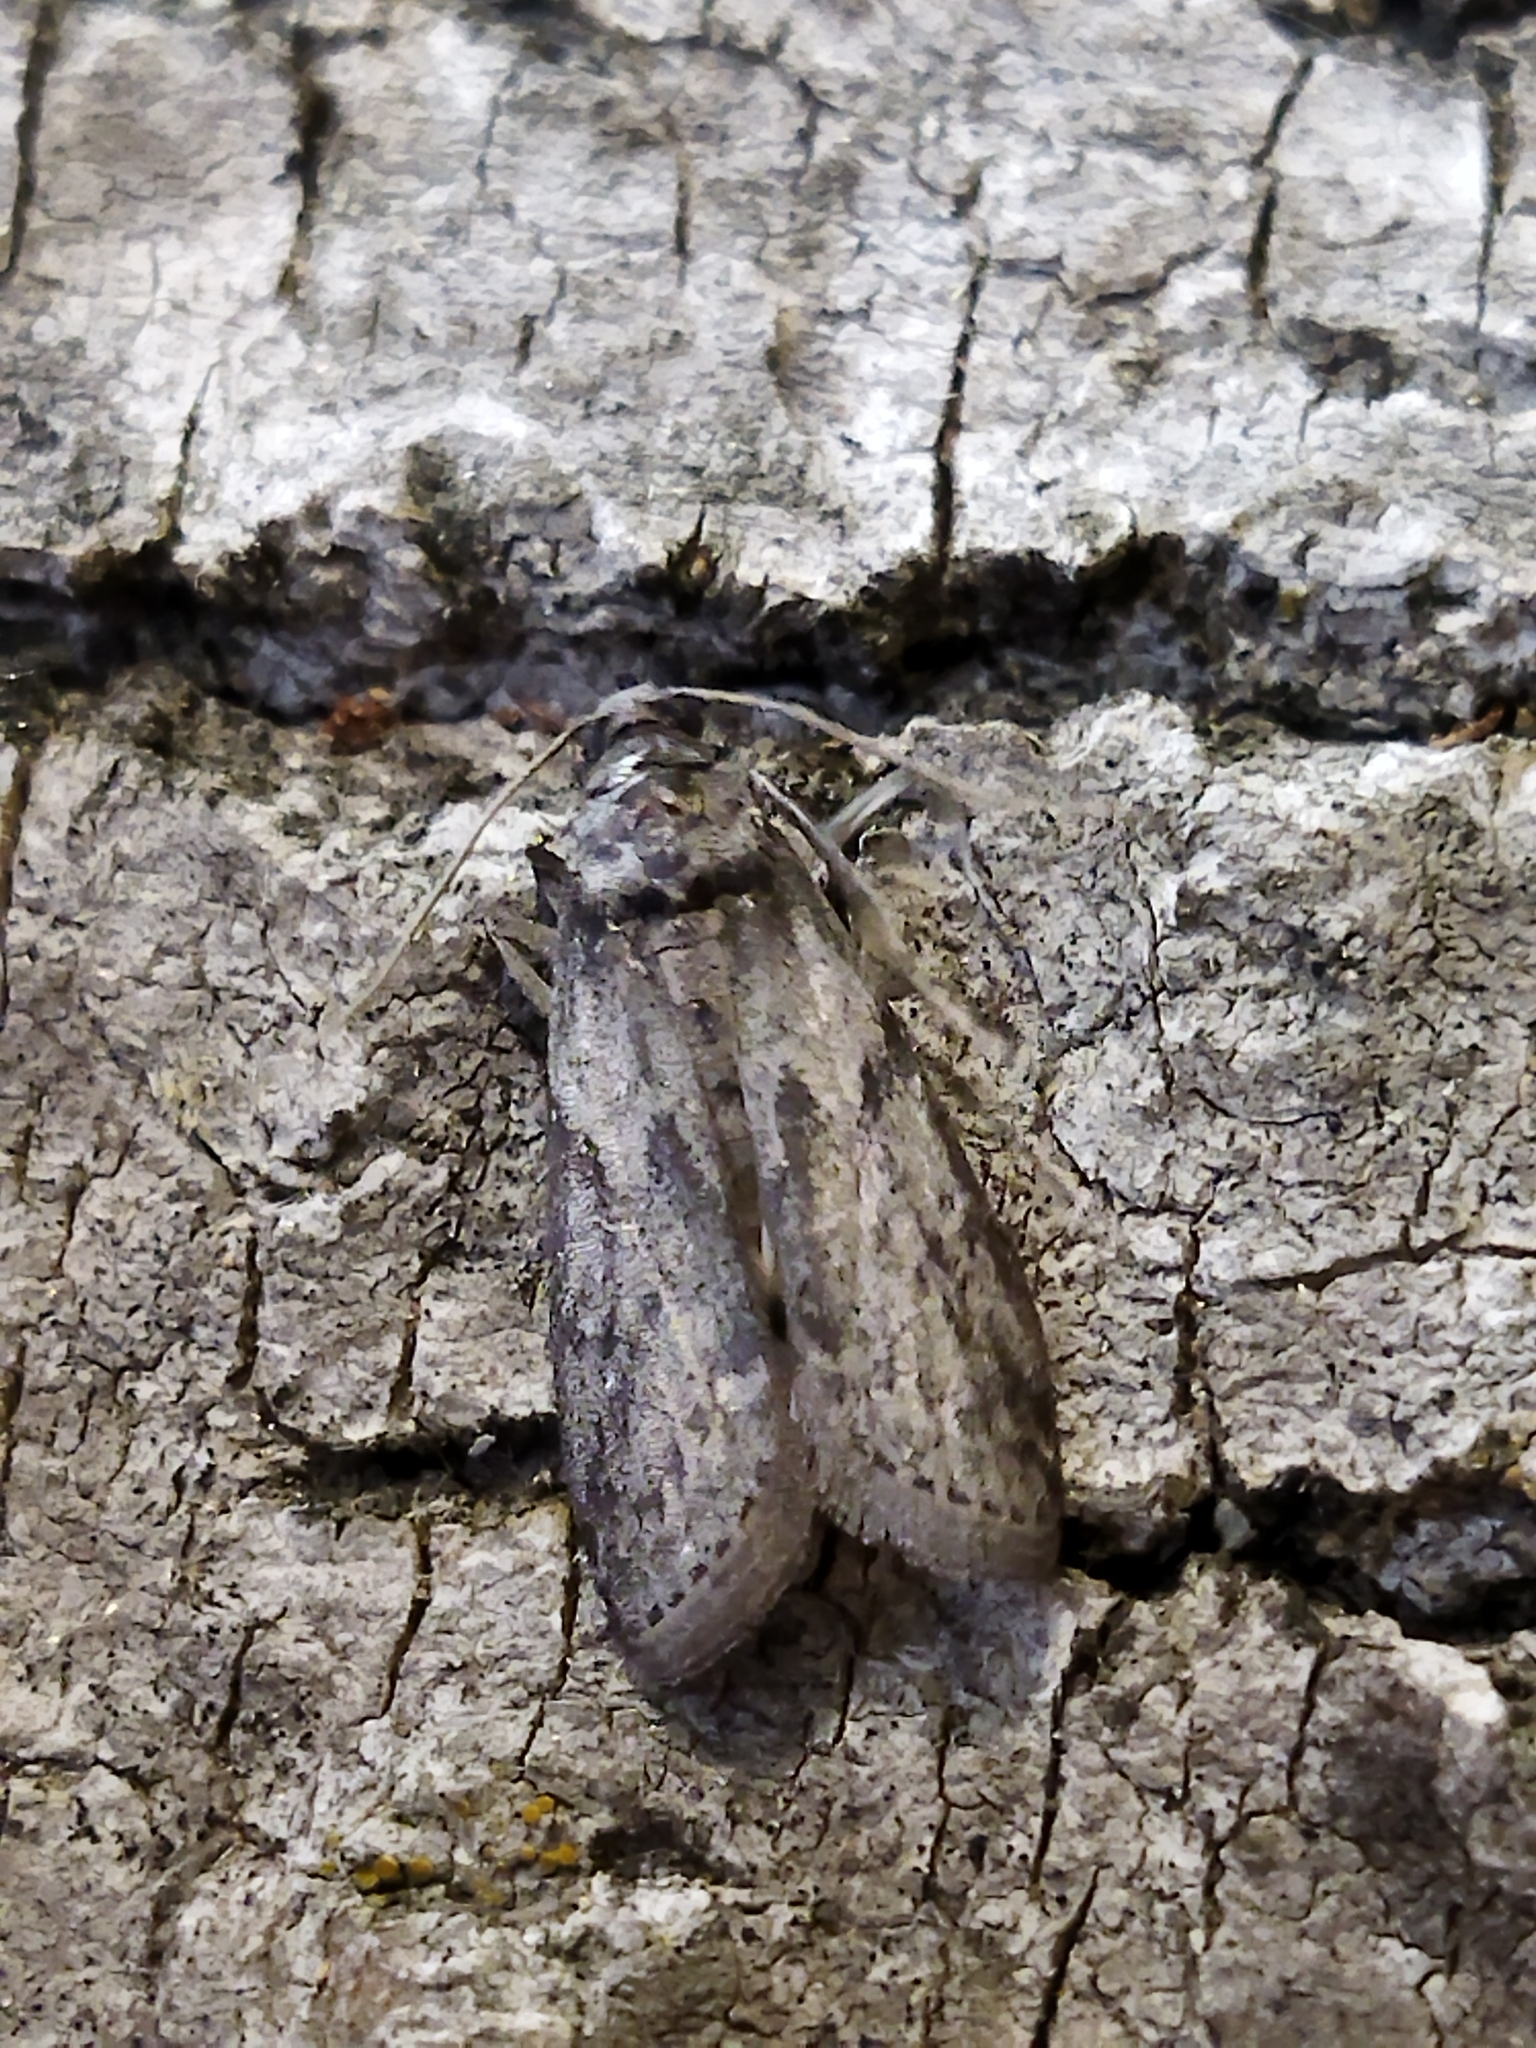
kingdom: Animalia
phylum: Arthropoda
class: Insecta
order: Lepidoptera
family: Pyralidae
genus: Ectomyelois
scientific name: Ectomyelois ceratoniae
